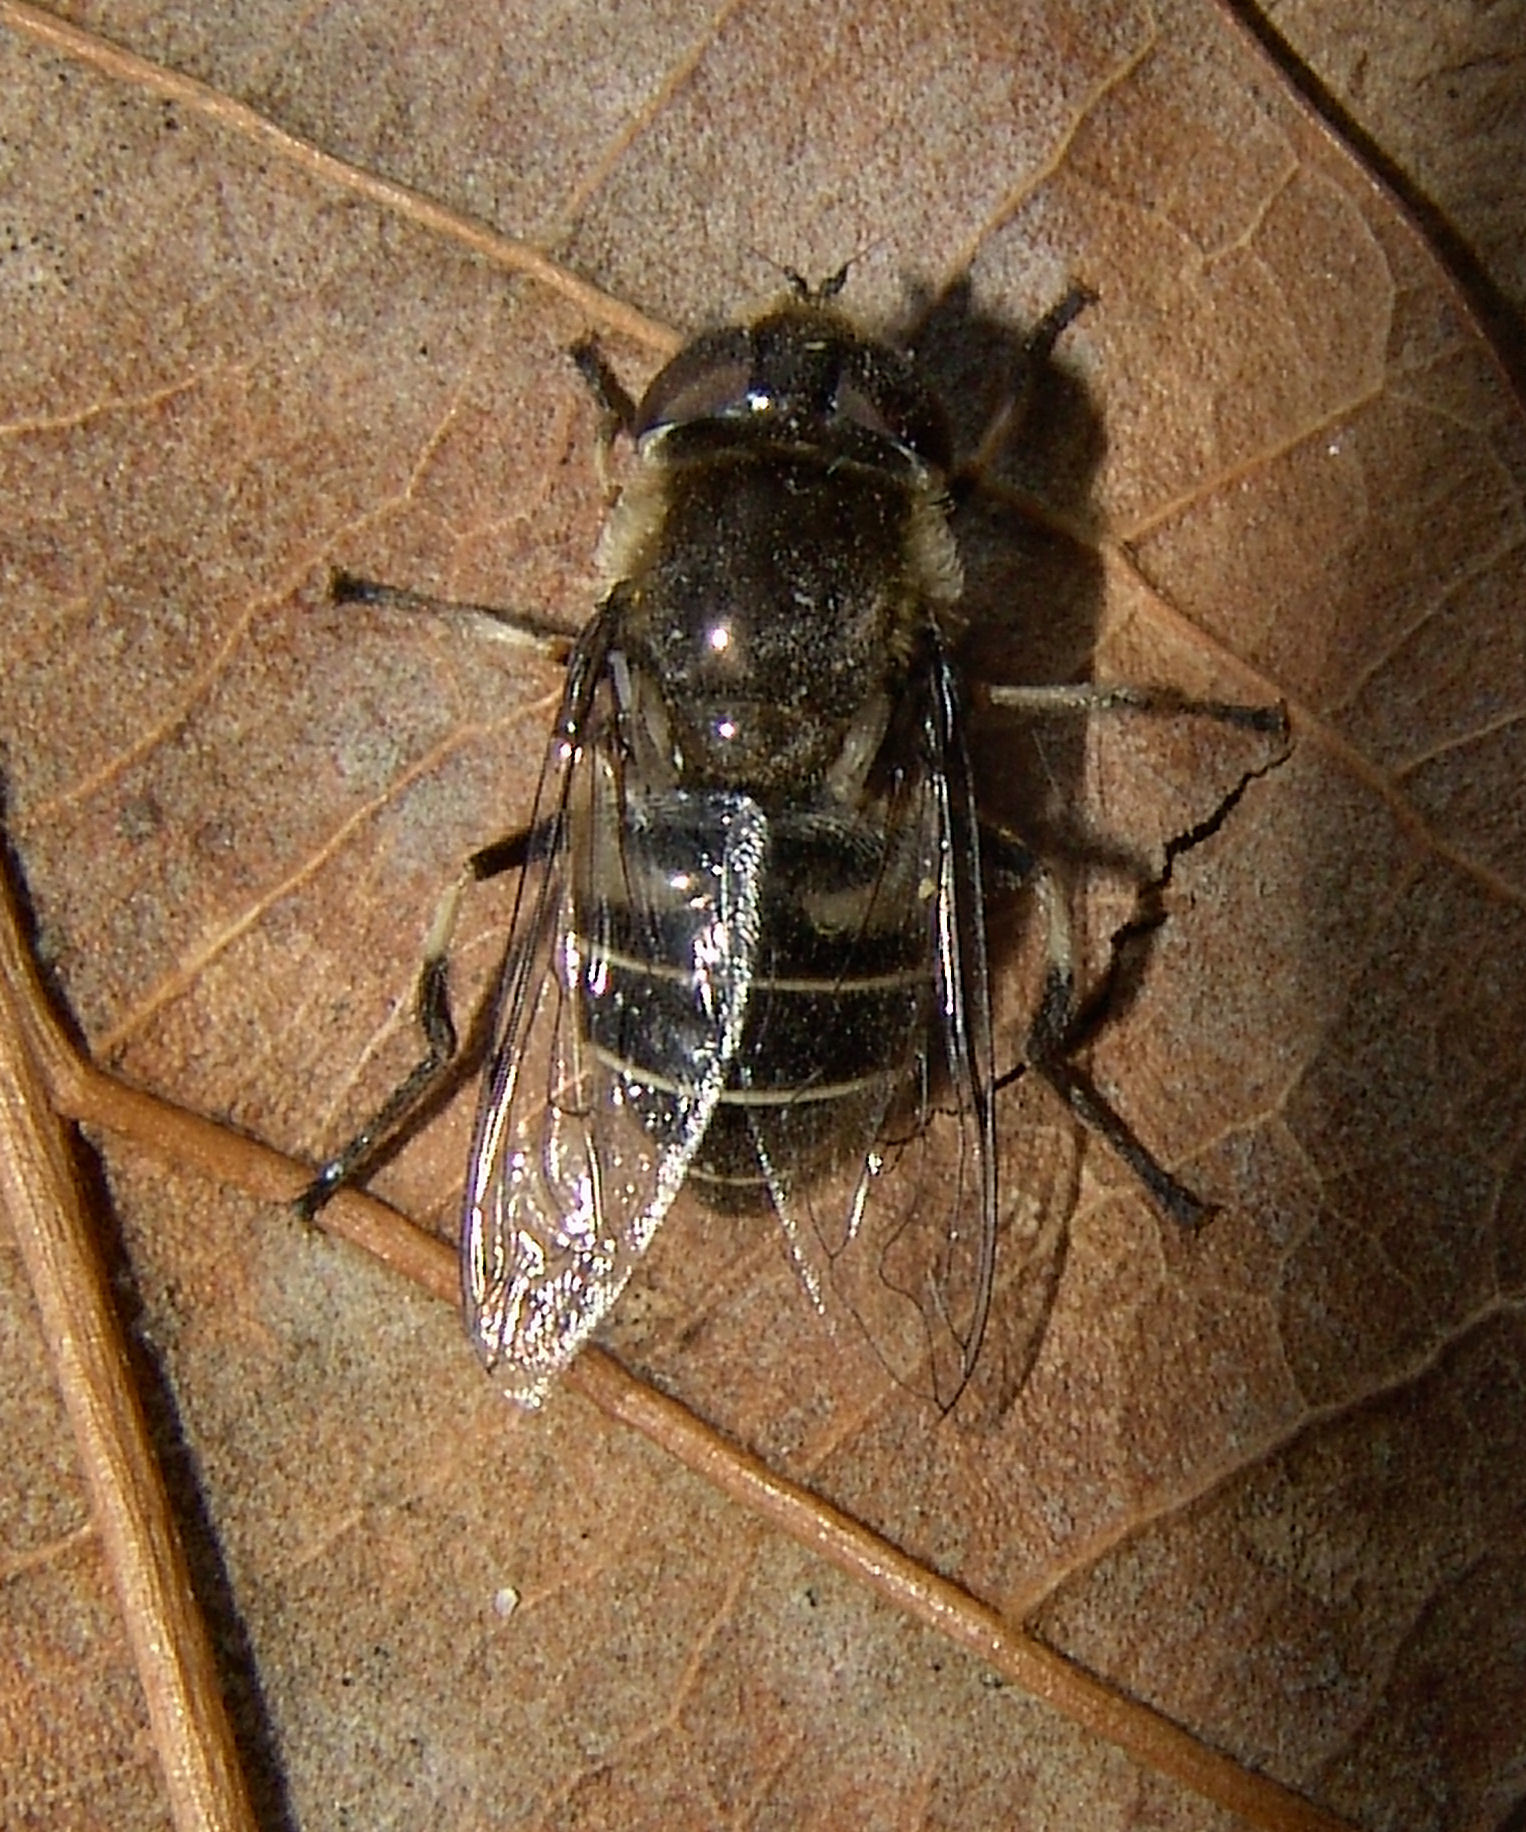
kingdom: Animalia
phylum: Arthropoda
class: Insecta
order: Diptera
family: Syrphidae
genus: Eristalis
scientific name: Eristalis dimidiata
